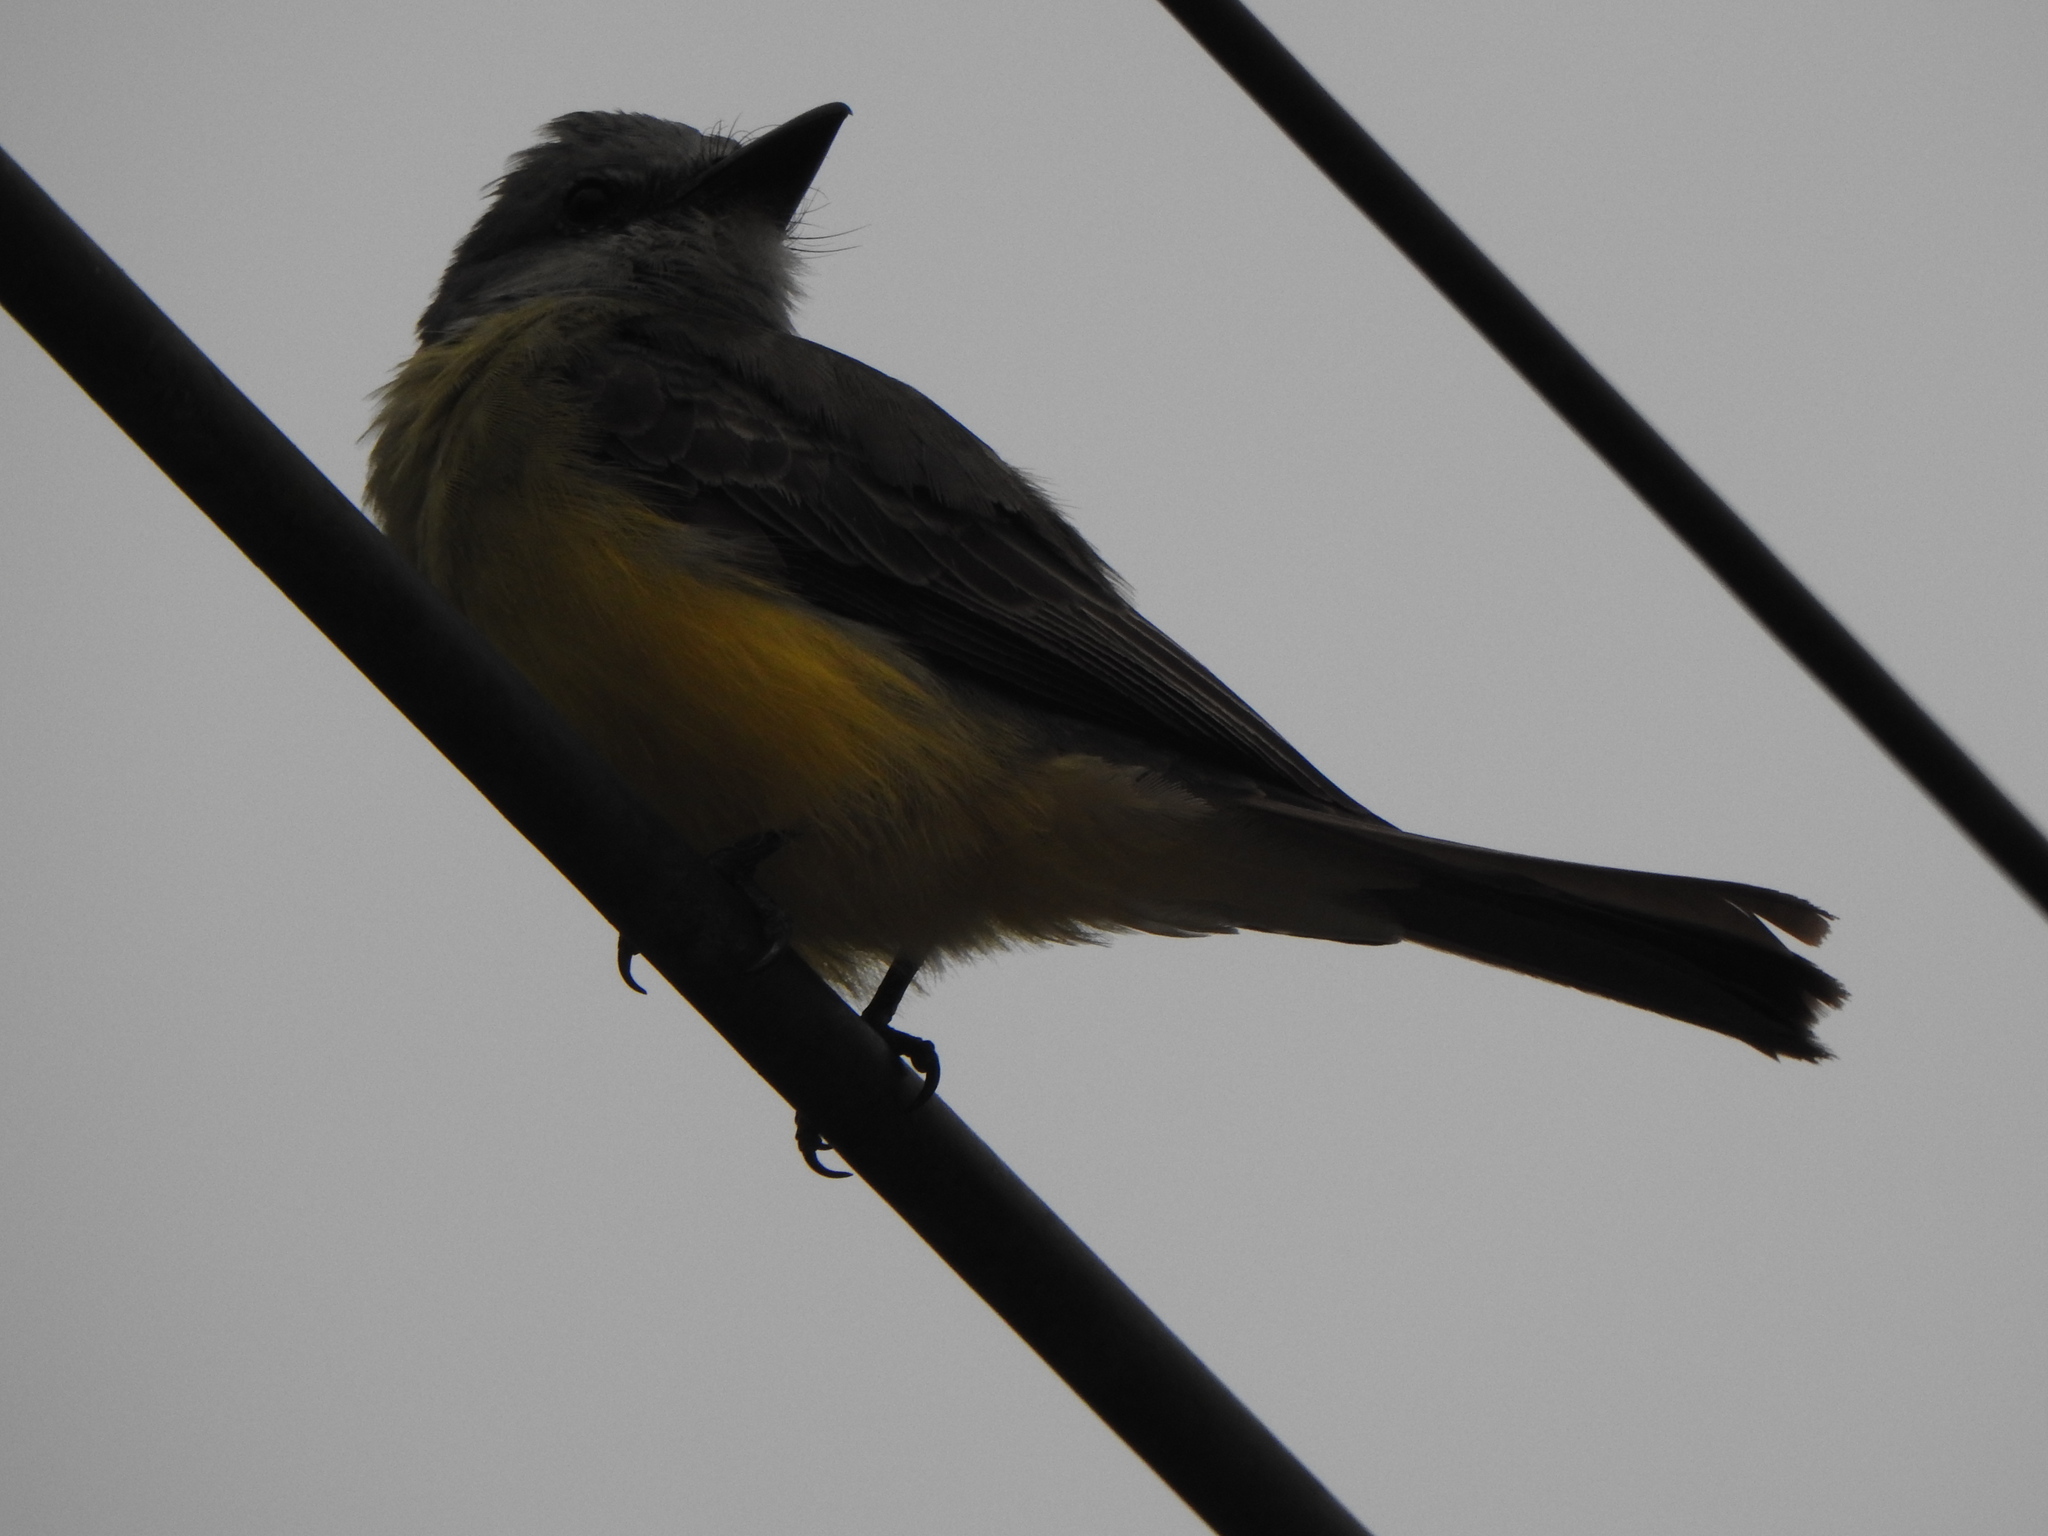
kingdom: Animalia
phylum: Chordata
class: Aves
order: Passeriformes
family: Tyrannidae
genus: Tyrannus
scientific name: Tyrannus melancholicus
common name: Tropical kingbird
